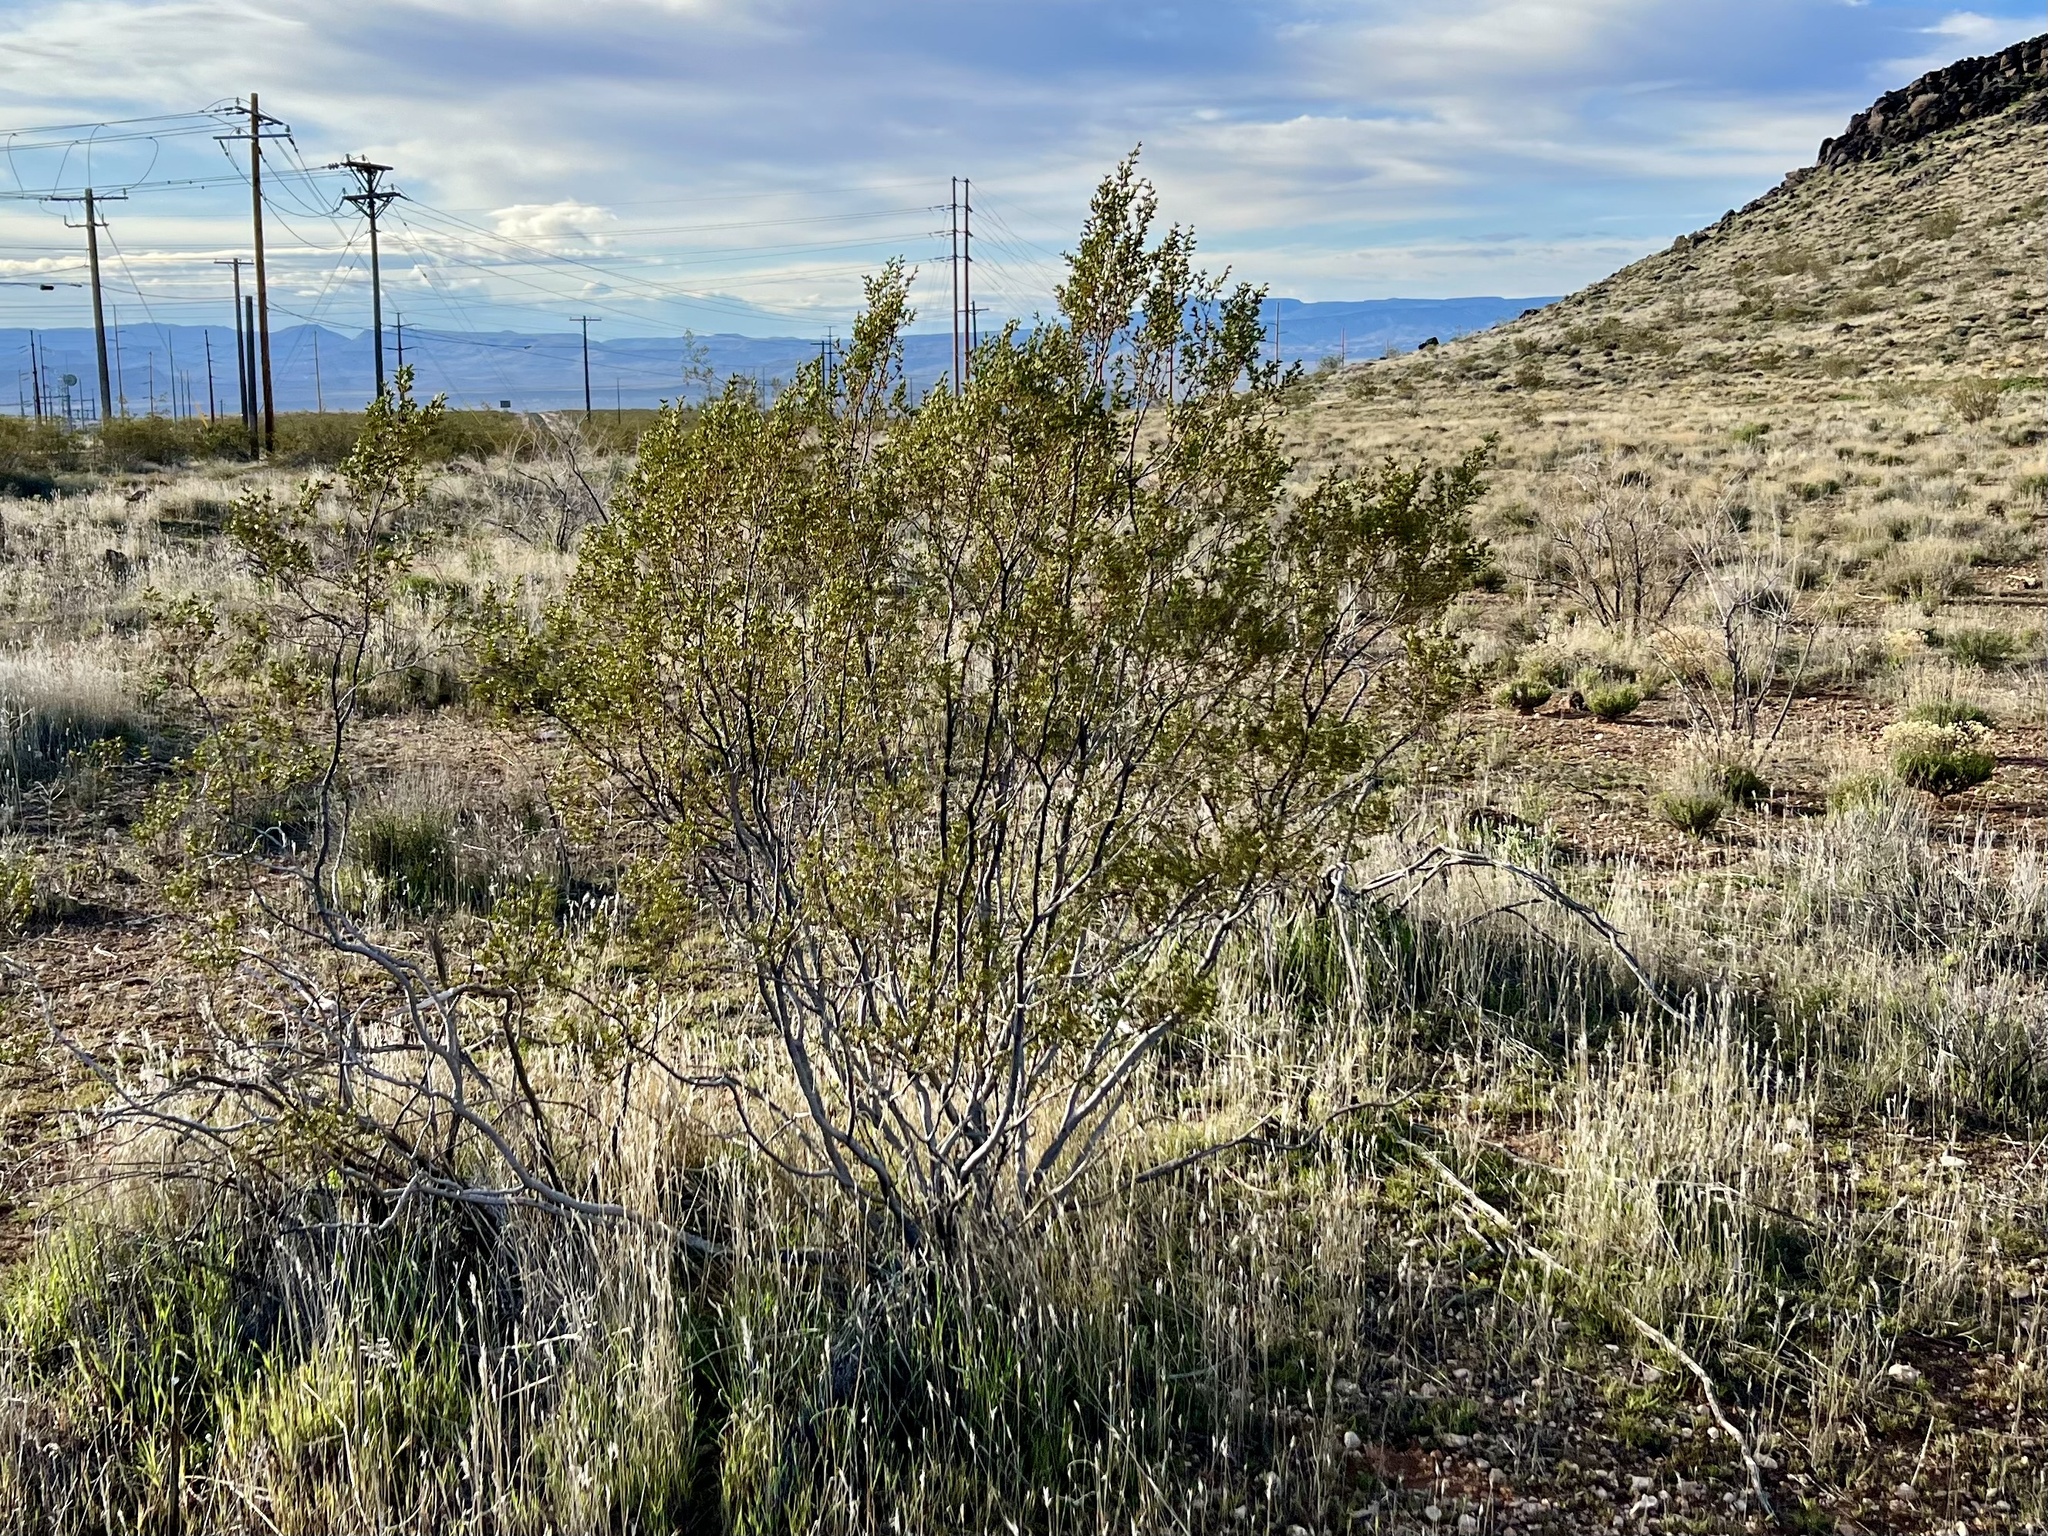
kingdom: Plantae
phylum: Tracheophyta
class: Magnoliopsida
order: Zygophyllales
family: Zygophyllaceae
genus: Larrea
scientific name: Larrea tridentata
